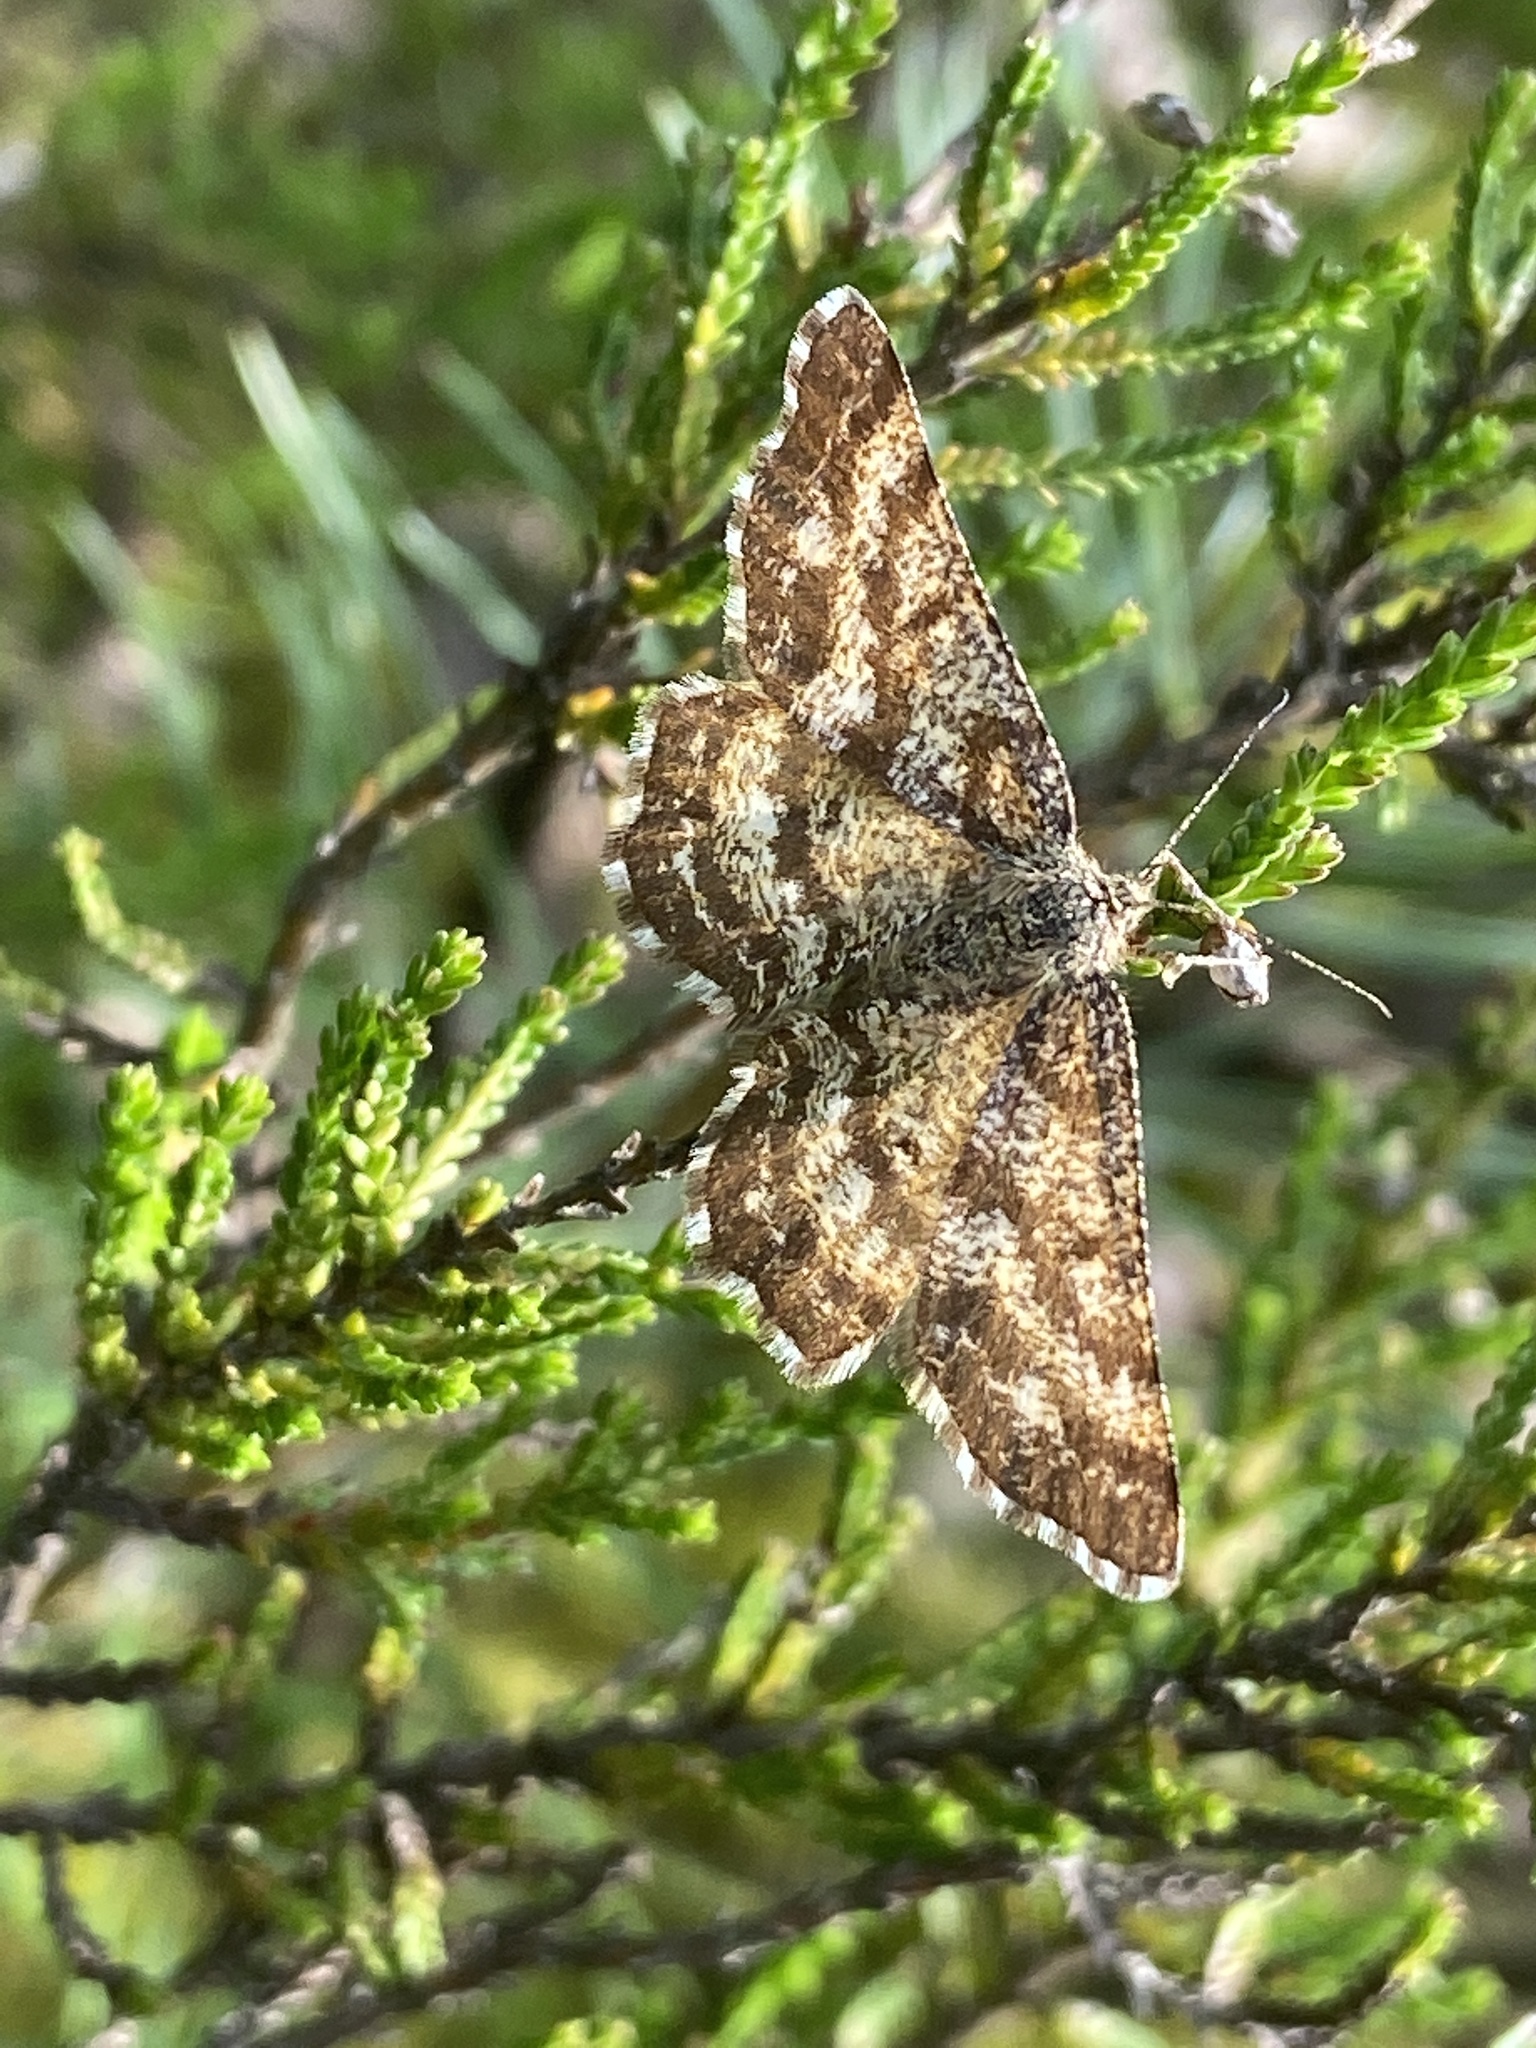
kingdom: Animalia
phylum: Arthropoda
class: Insecta
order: Lepidoptera
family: Geometridae
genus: Ematurga
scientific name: Ematurga atomaria
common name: Common heath
